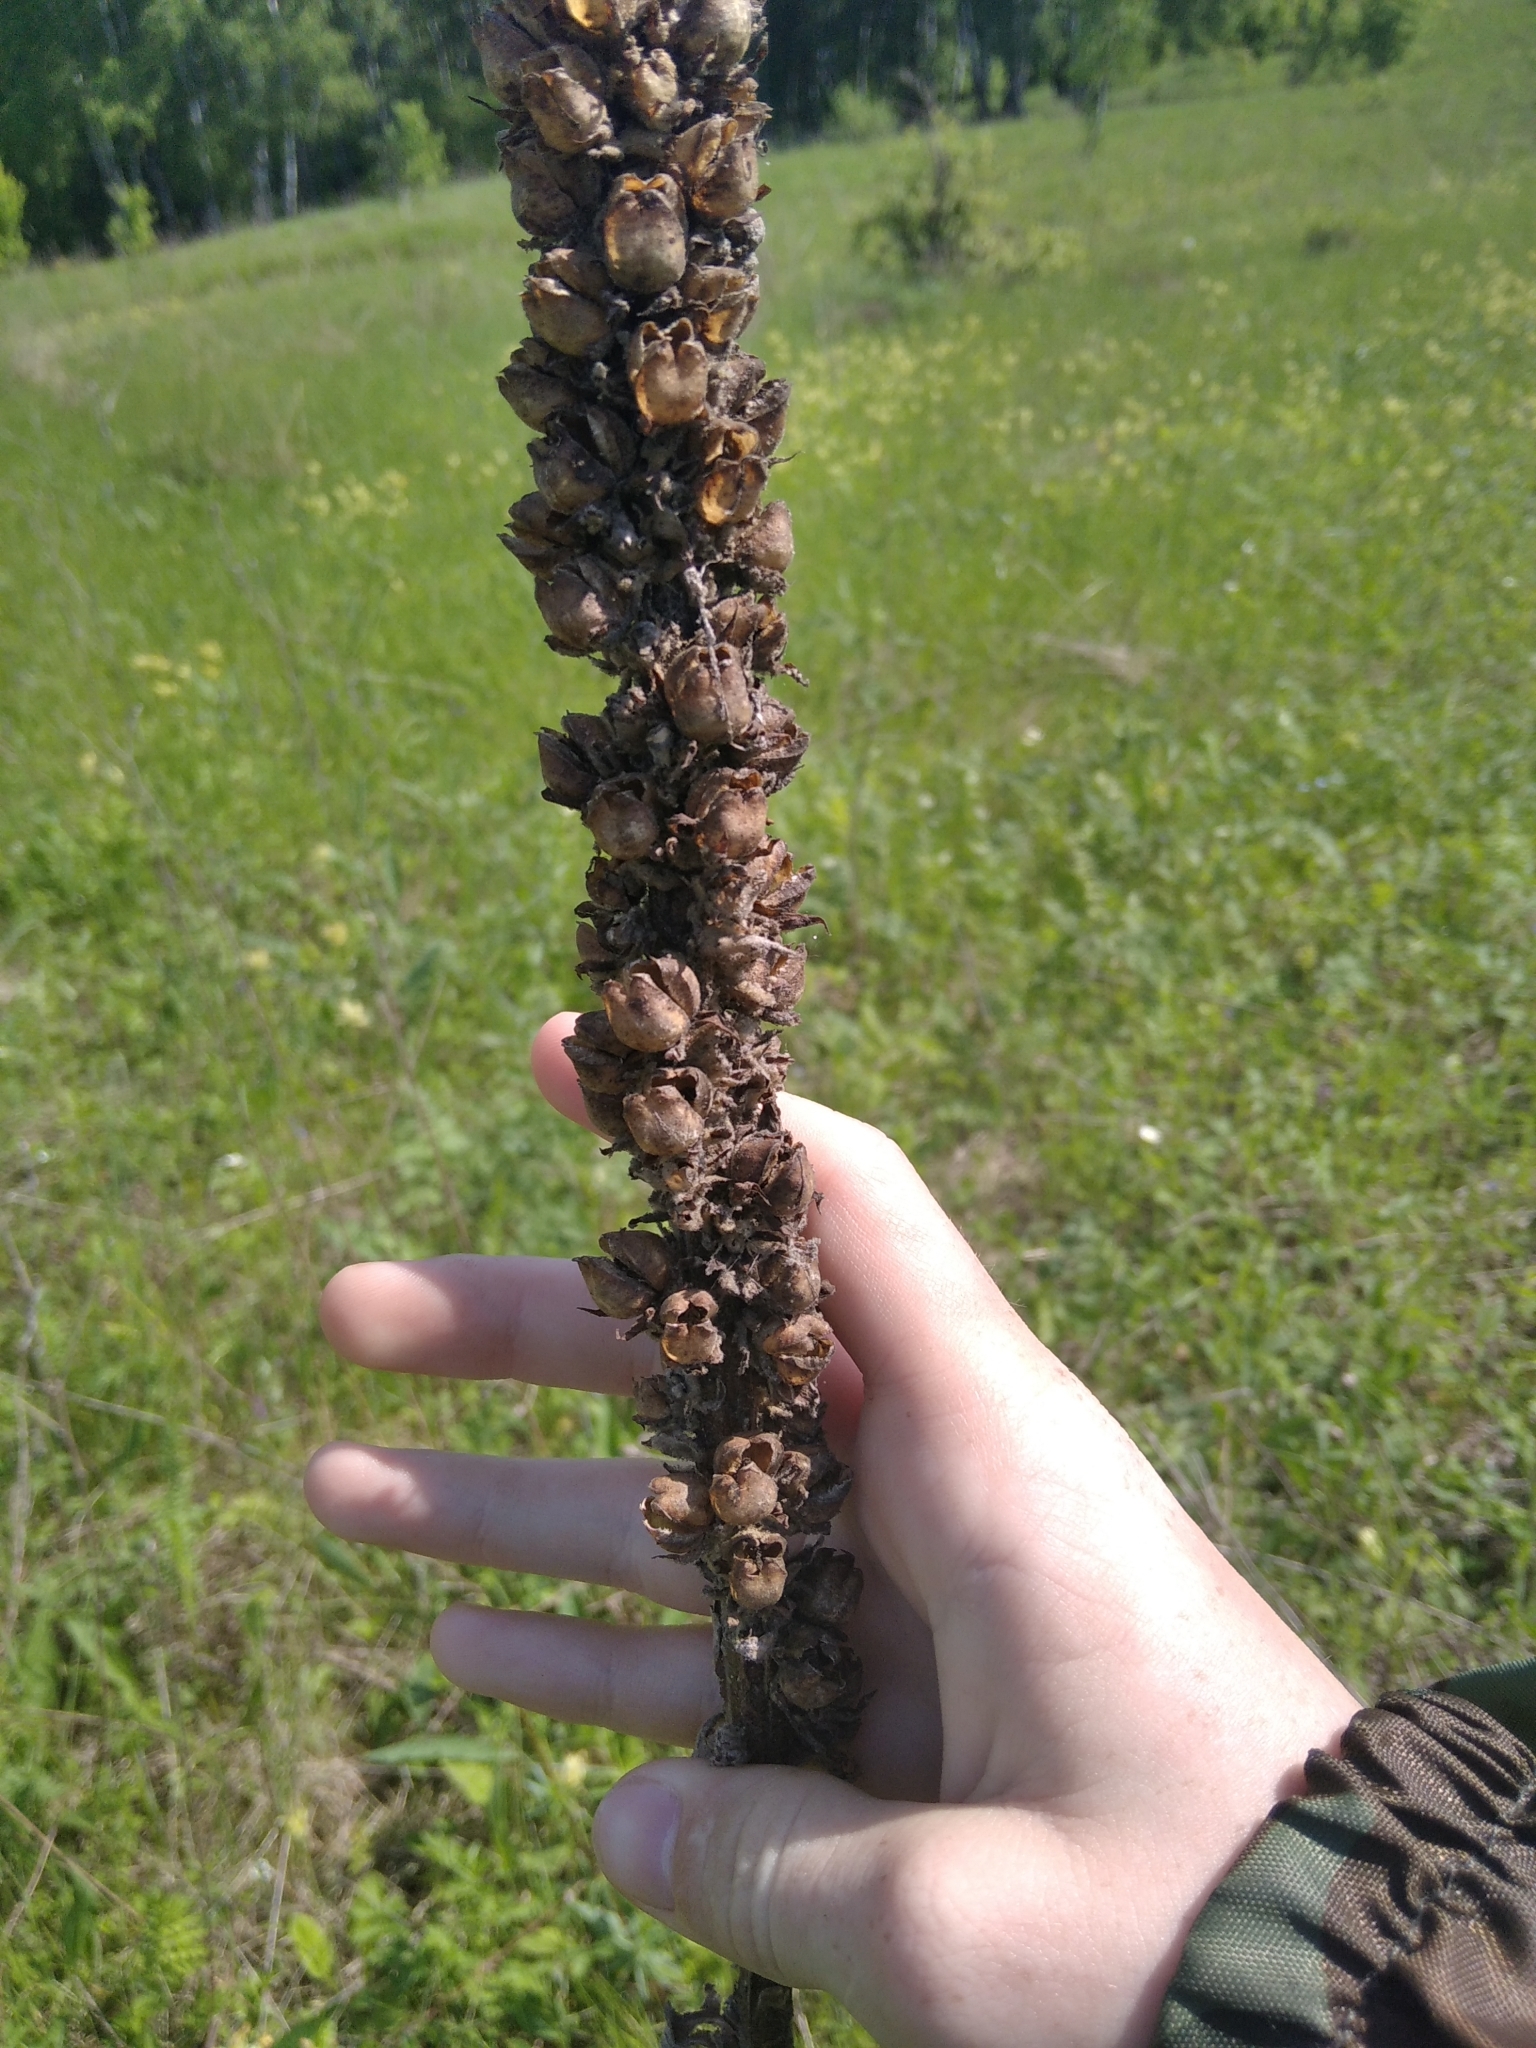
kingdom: Plantae
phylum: Tracheophyta
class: Magnoliopsida
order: Lamiales
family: Scrophulariaceae
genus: Verbascum
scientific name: Verbascum thapsus
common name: Common mullein
